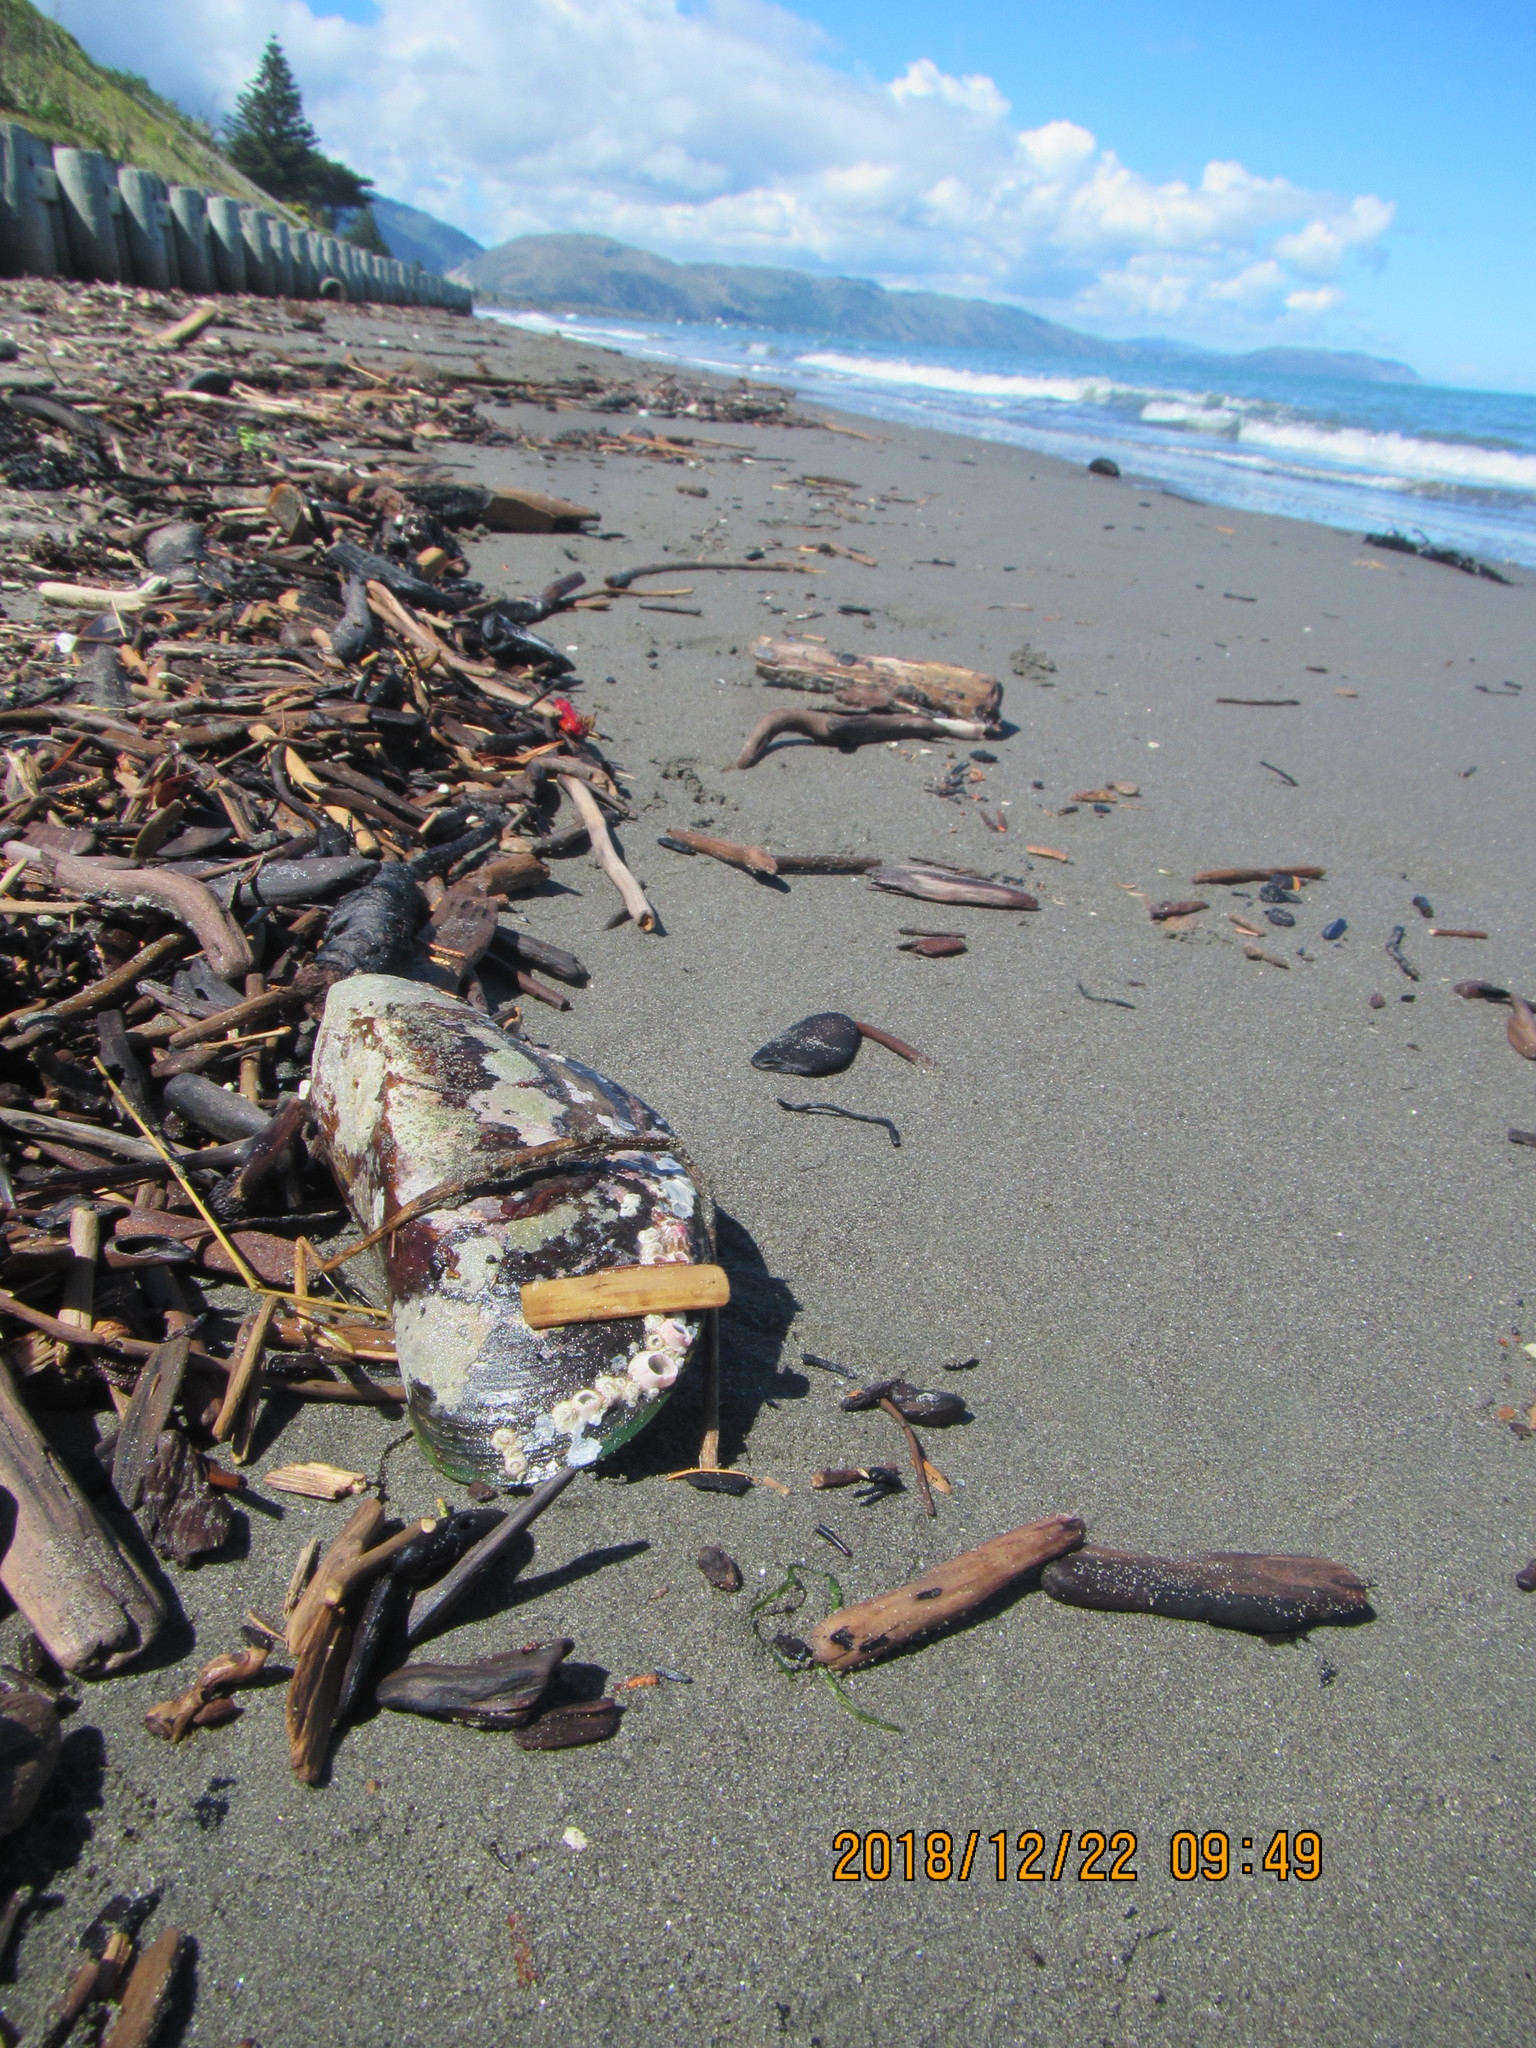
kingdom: Animalia
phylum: Mollusca
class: Bivalvia
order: Mytilida
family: Mytilidae
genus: Perna
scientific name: Perna canaliculus
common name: New zealand greenshelltm
